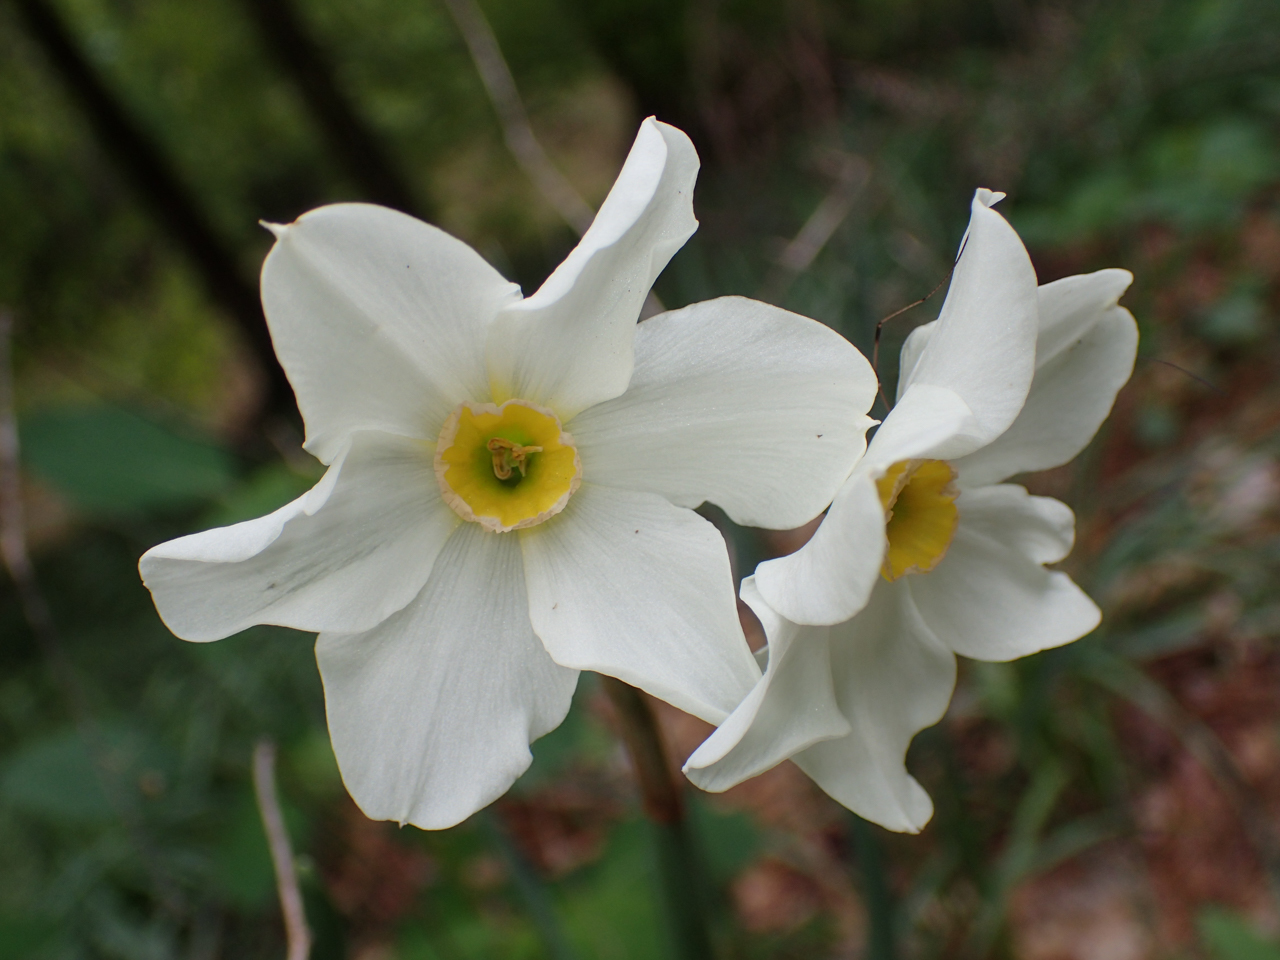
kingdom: Plantae
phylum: Tracheophyta
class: Liliopsida
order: Asparagales
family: Amaryllidaceae
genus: Narcissus
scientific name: Narcissus medioluteus
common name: Primrose-peerless
